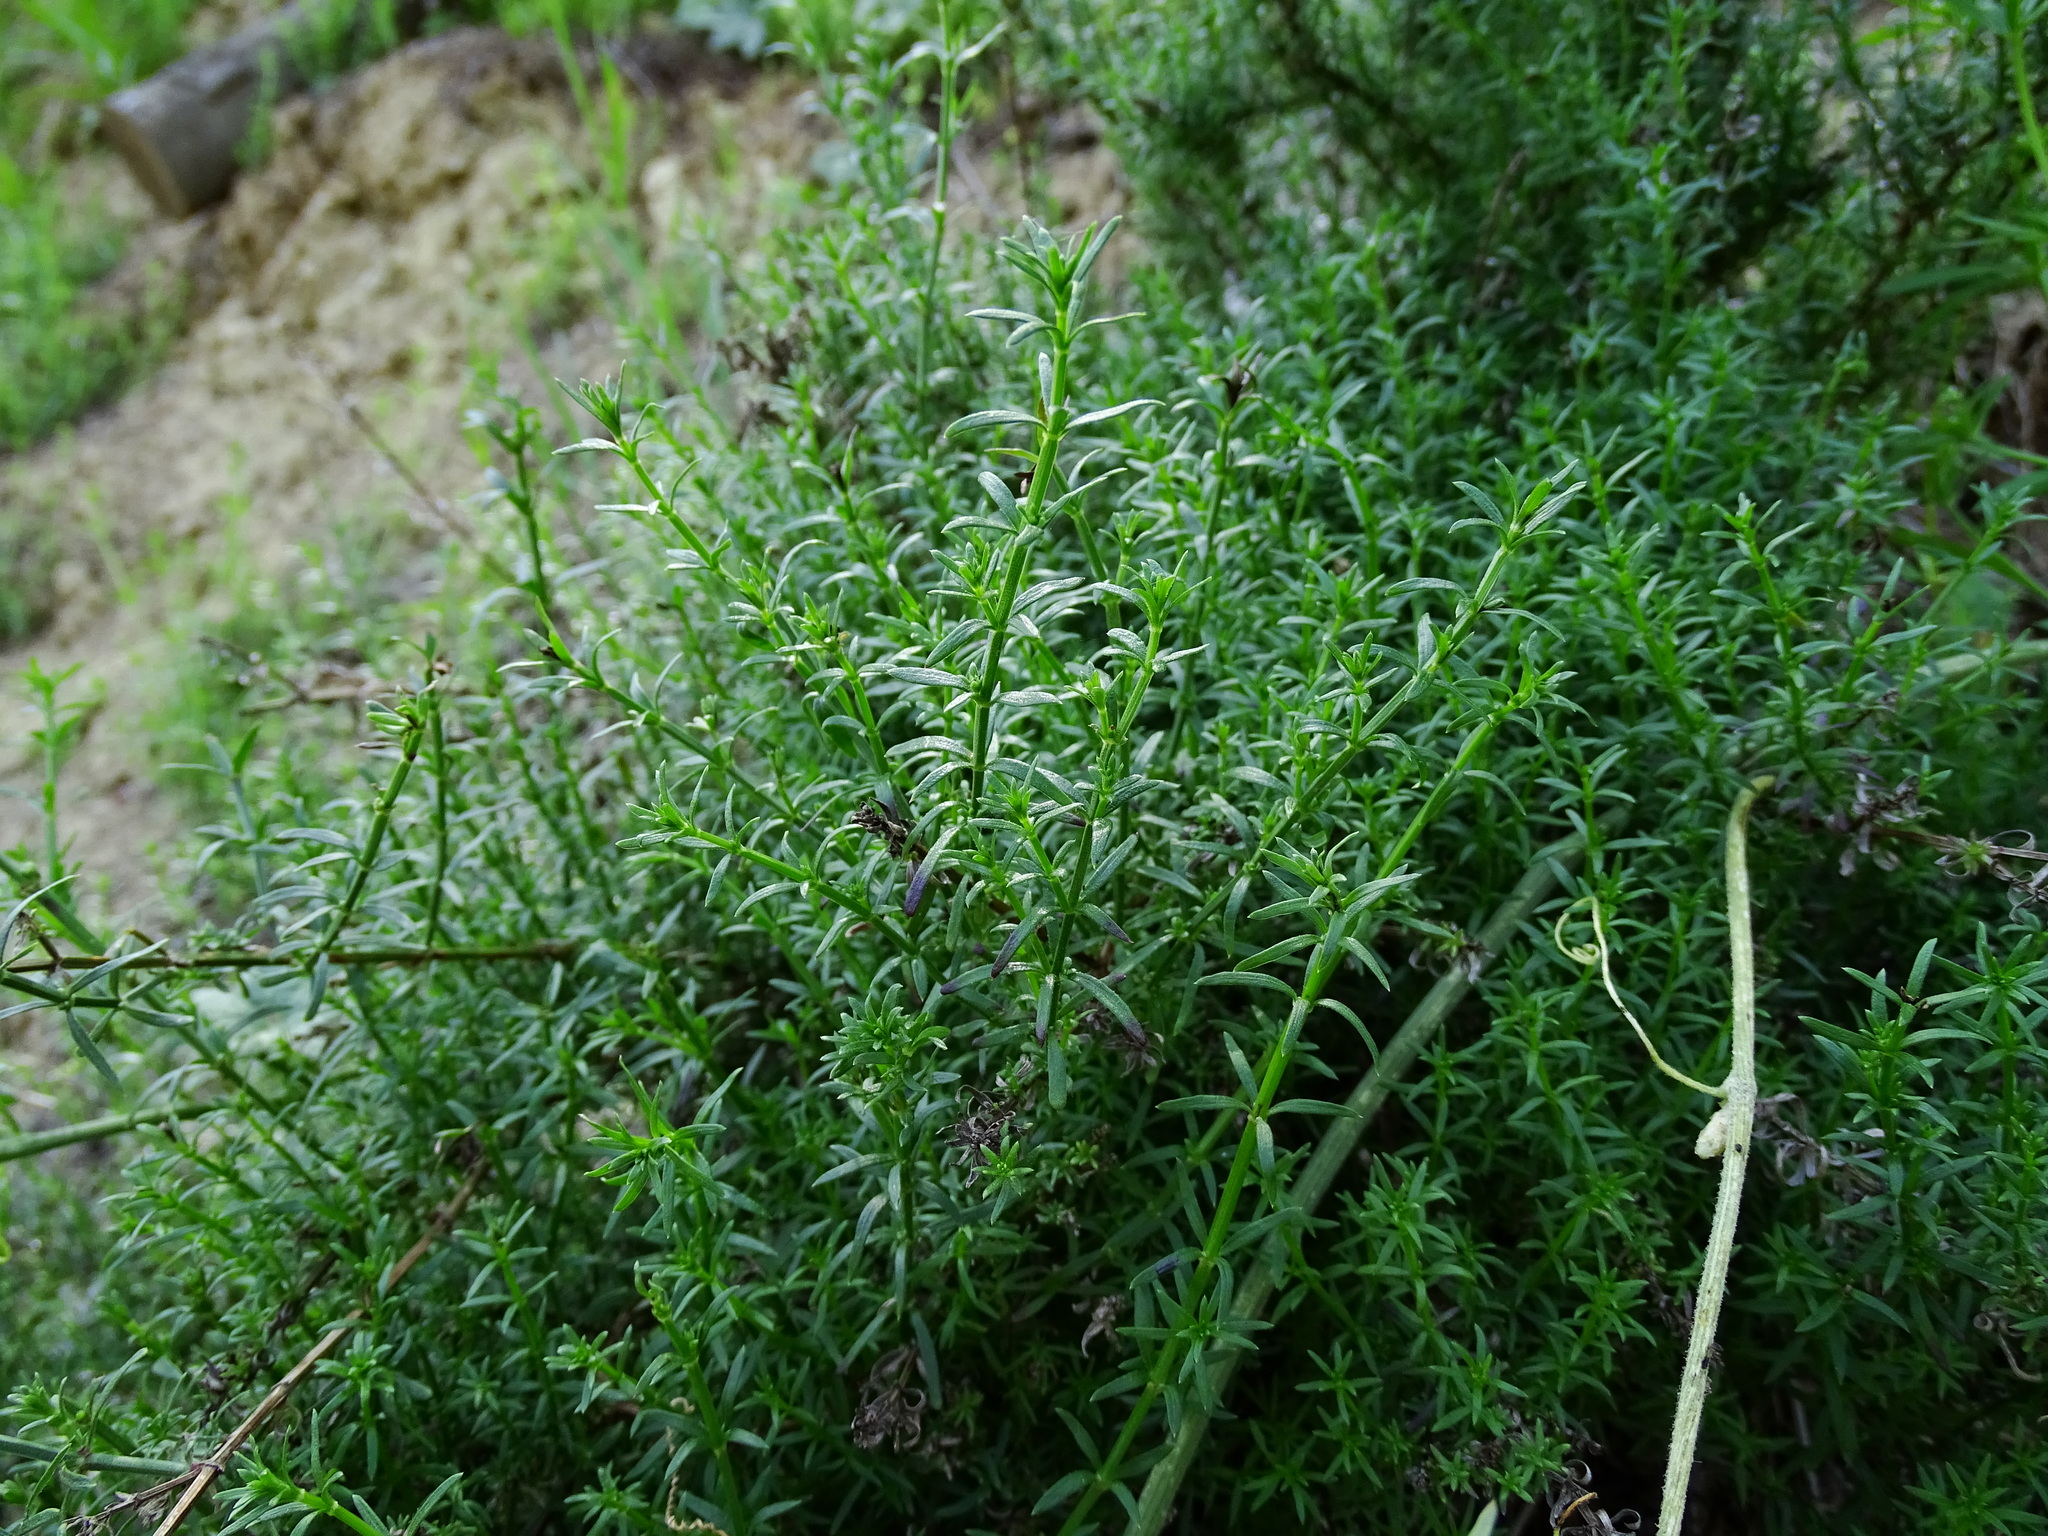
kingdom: Plantae
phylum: Tracheophyta
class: Magnoliopsida
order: Gentianales
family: Rubiaceae
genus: Galium
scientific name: Galium angustifolium
